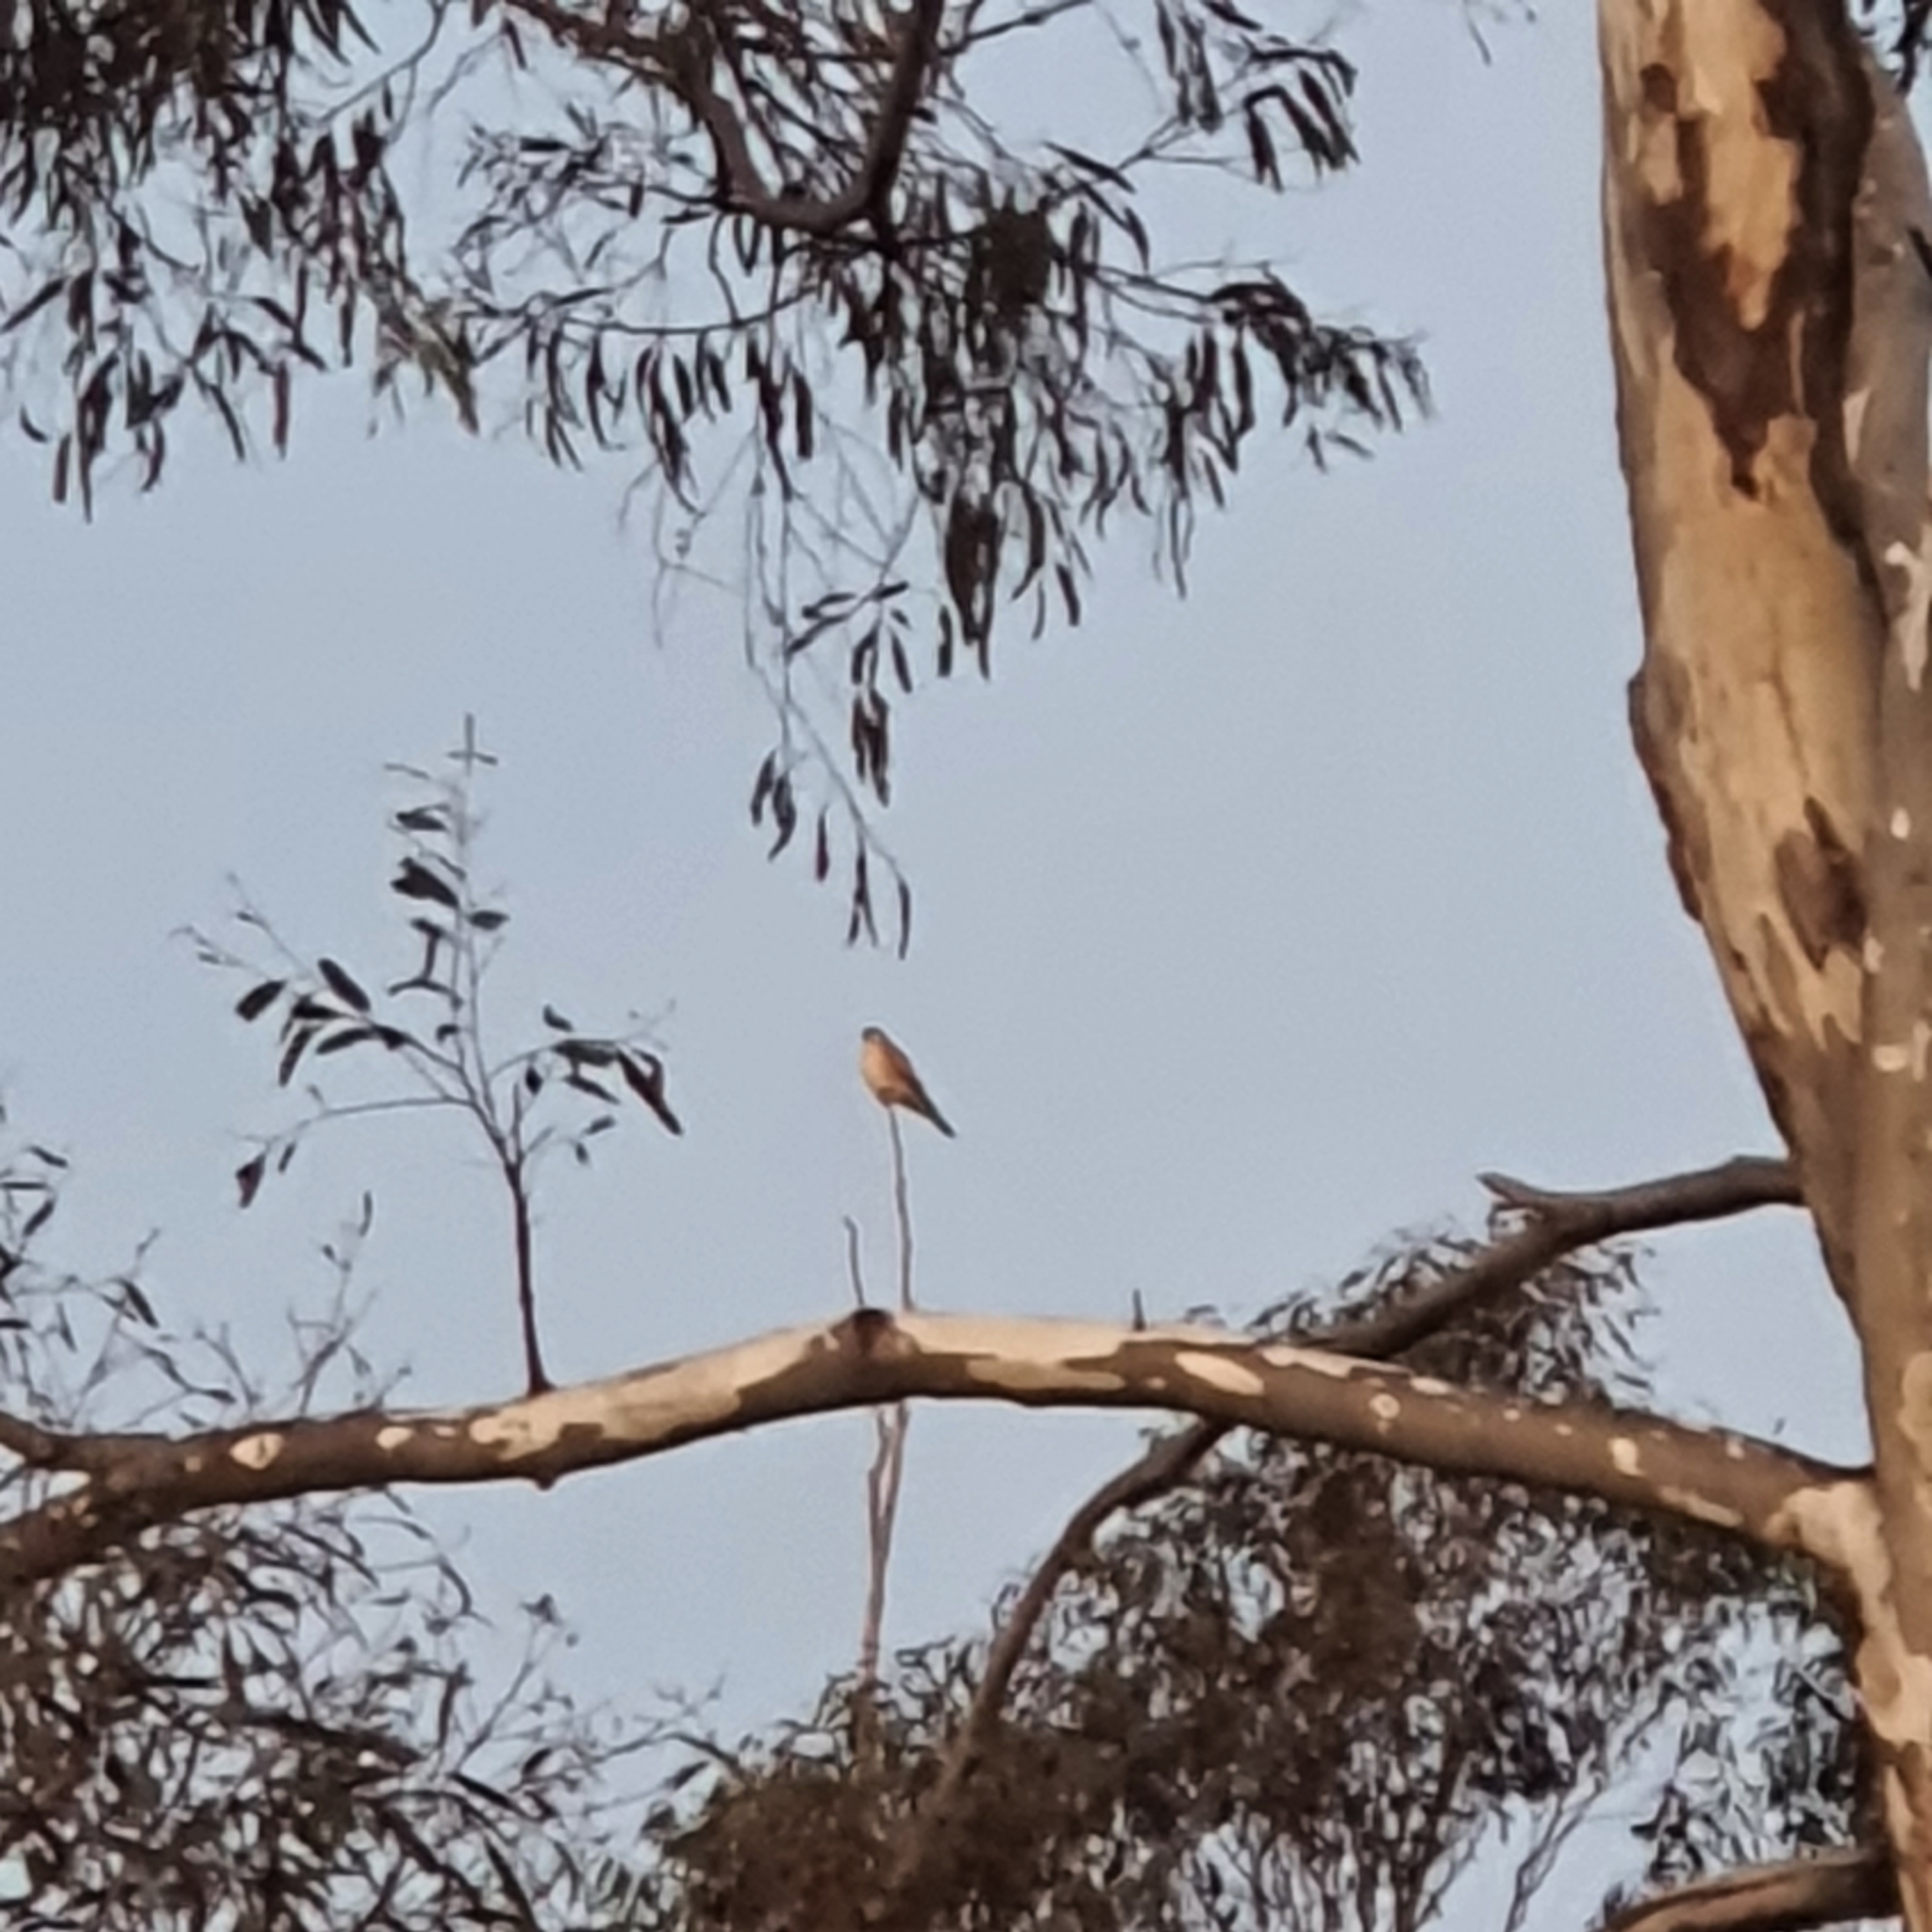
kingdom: Animalia
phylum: Chordata
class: Aves
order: Falconiformes
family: Falconidae
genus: Falco
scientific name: Falco cenchroides
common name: Nankeen kestrel
